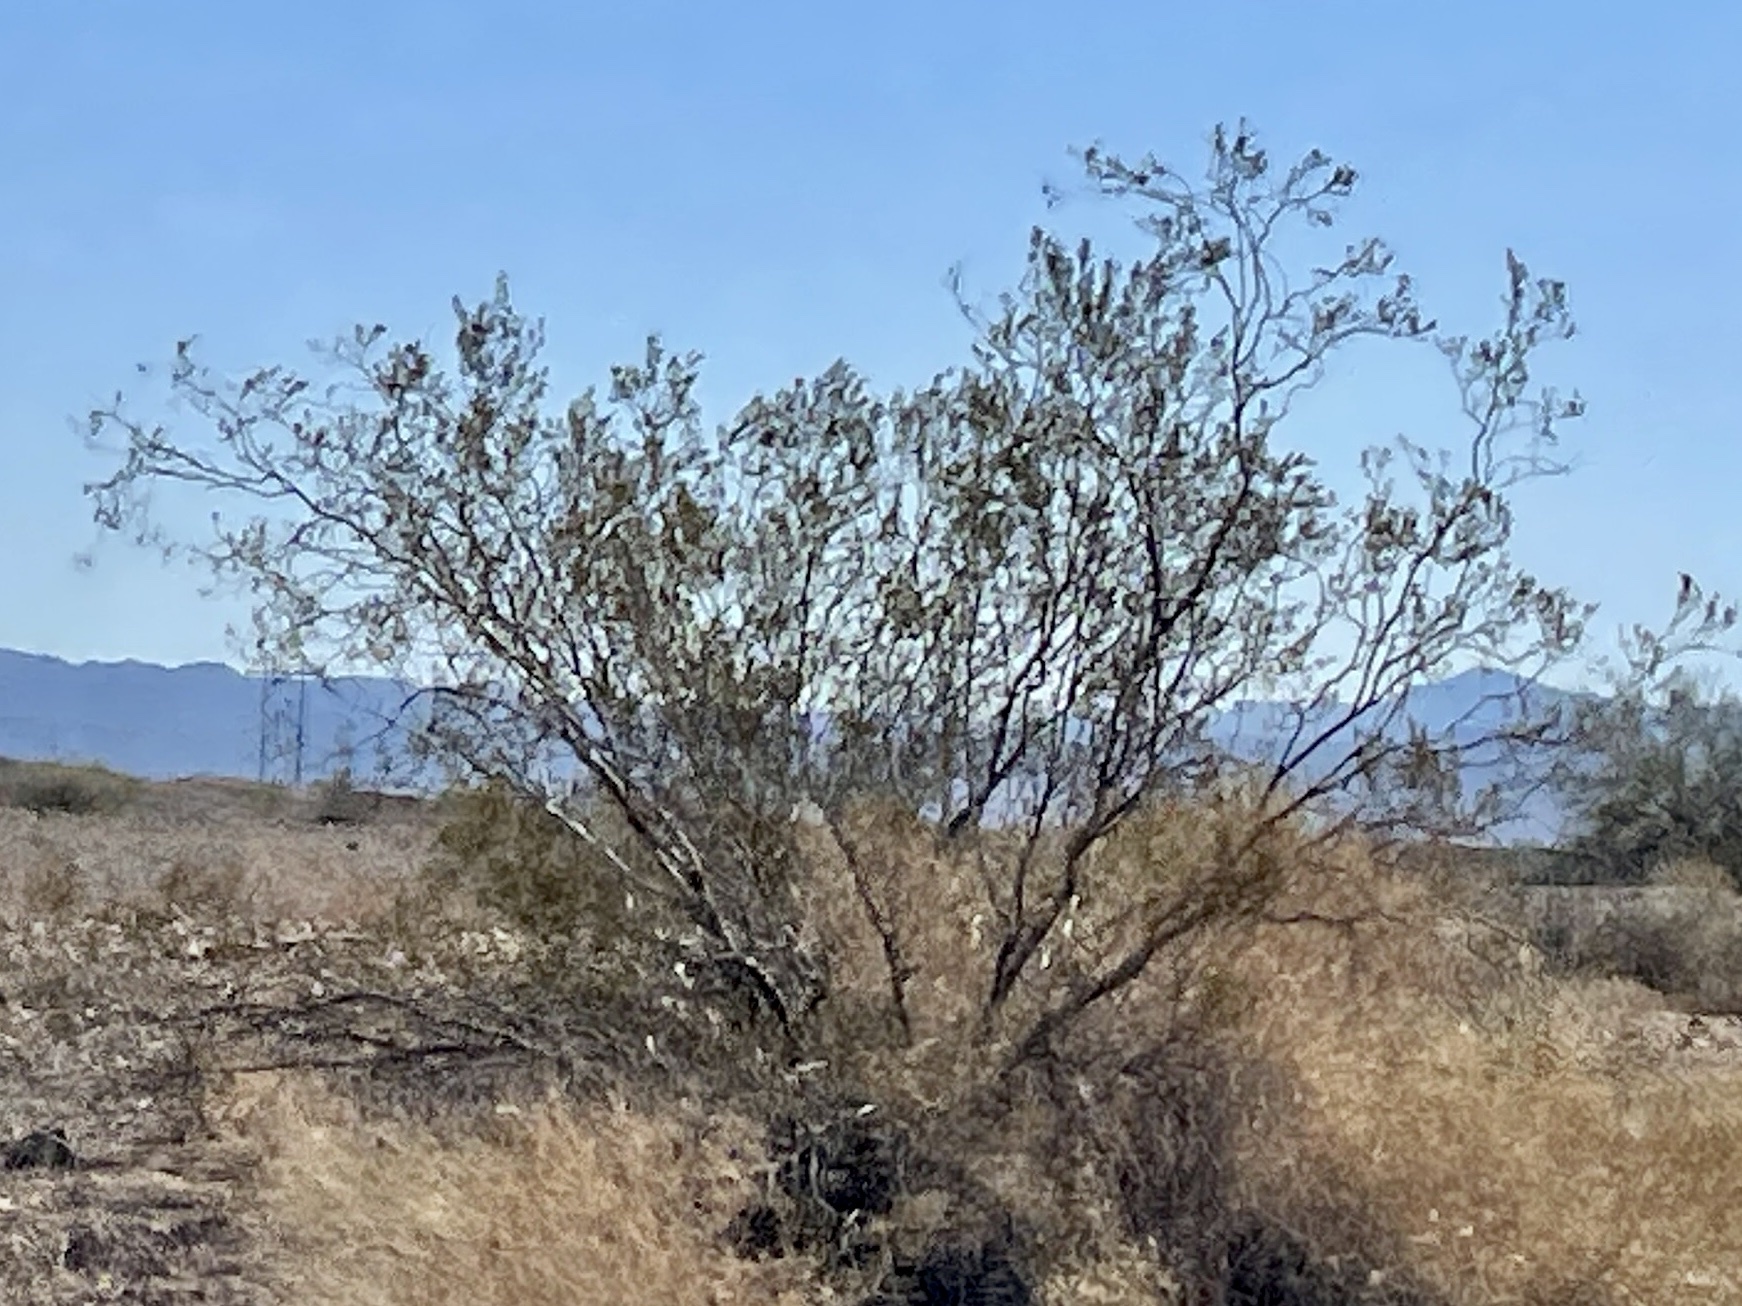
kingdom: Plantae
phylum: Tracheophyta
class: Magnoliopsida
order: Zygophyllales
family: Zygophyllaceae
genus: Larrea
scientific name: Larrea tridentata
